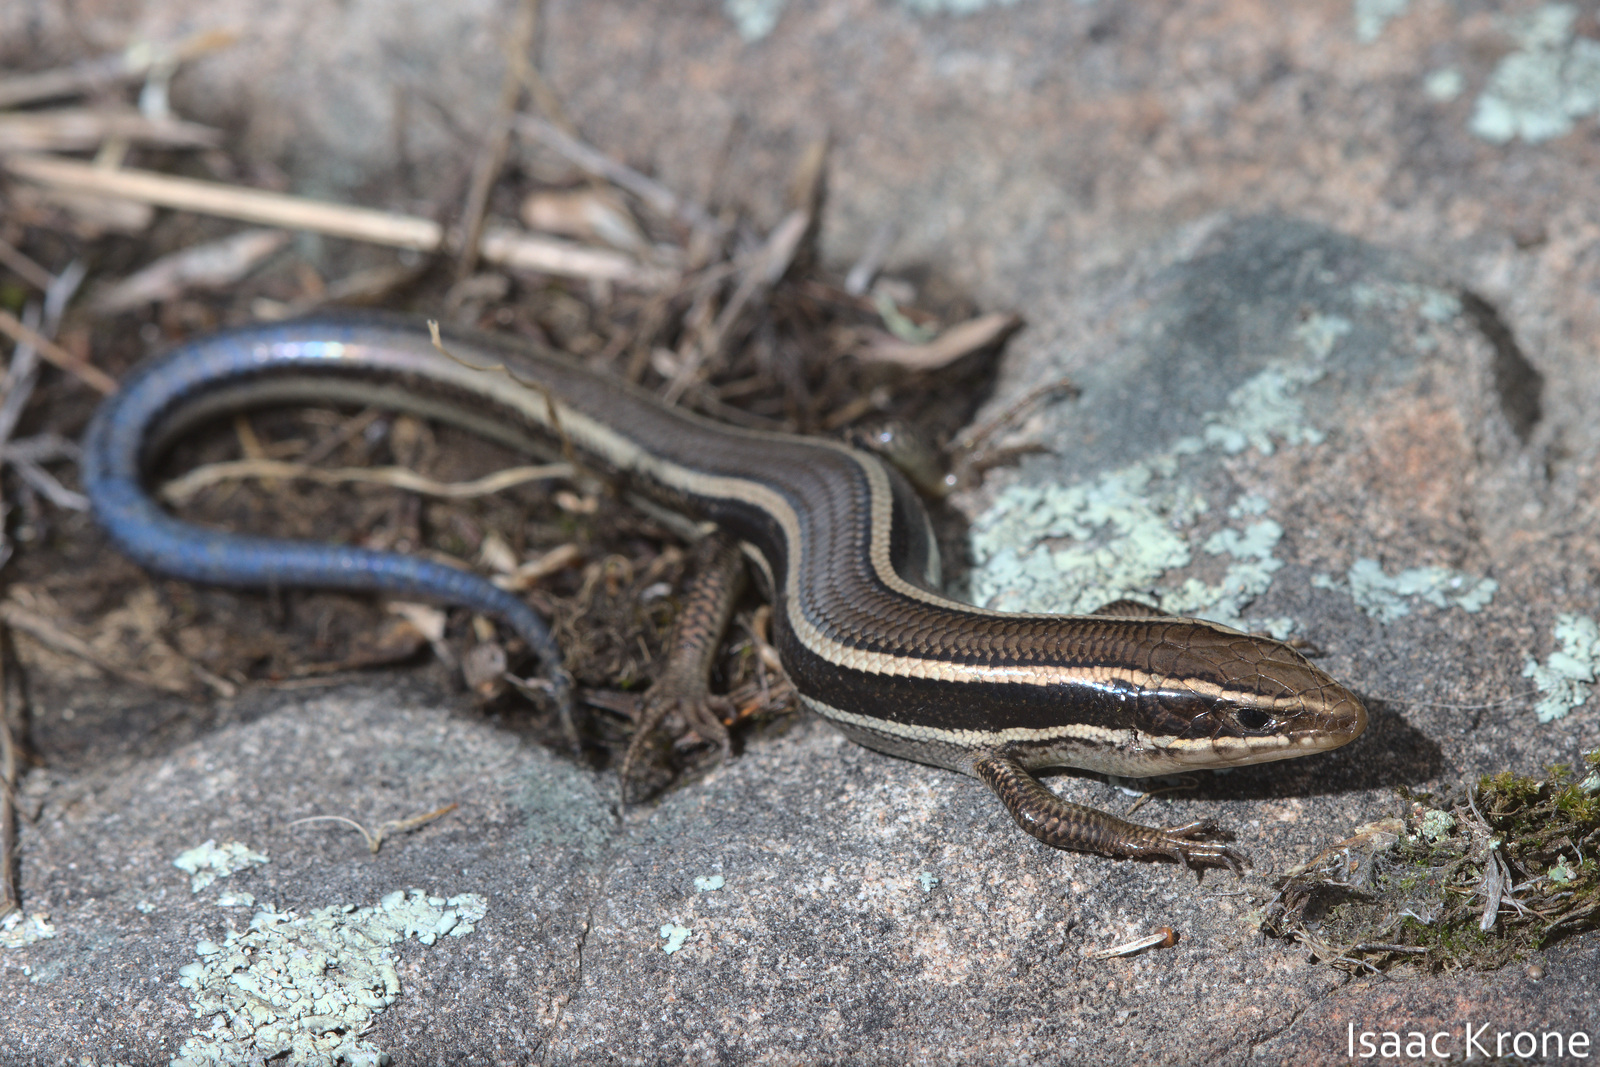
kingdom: Animalia
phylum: Chordata
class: Squamata
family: Scincidae
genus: Plestiodon
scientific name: Plestiodon skiltonianus
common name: Coronado island skink [interparietalis]
